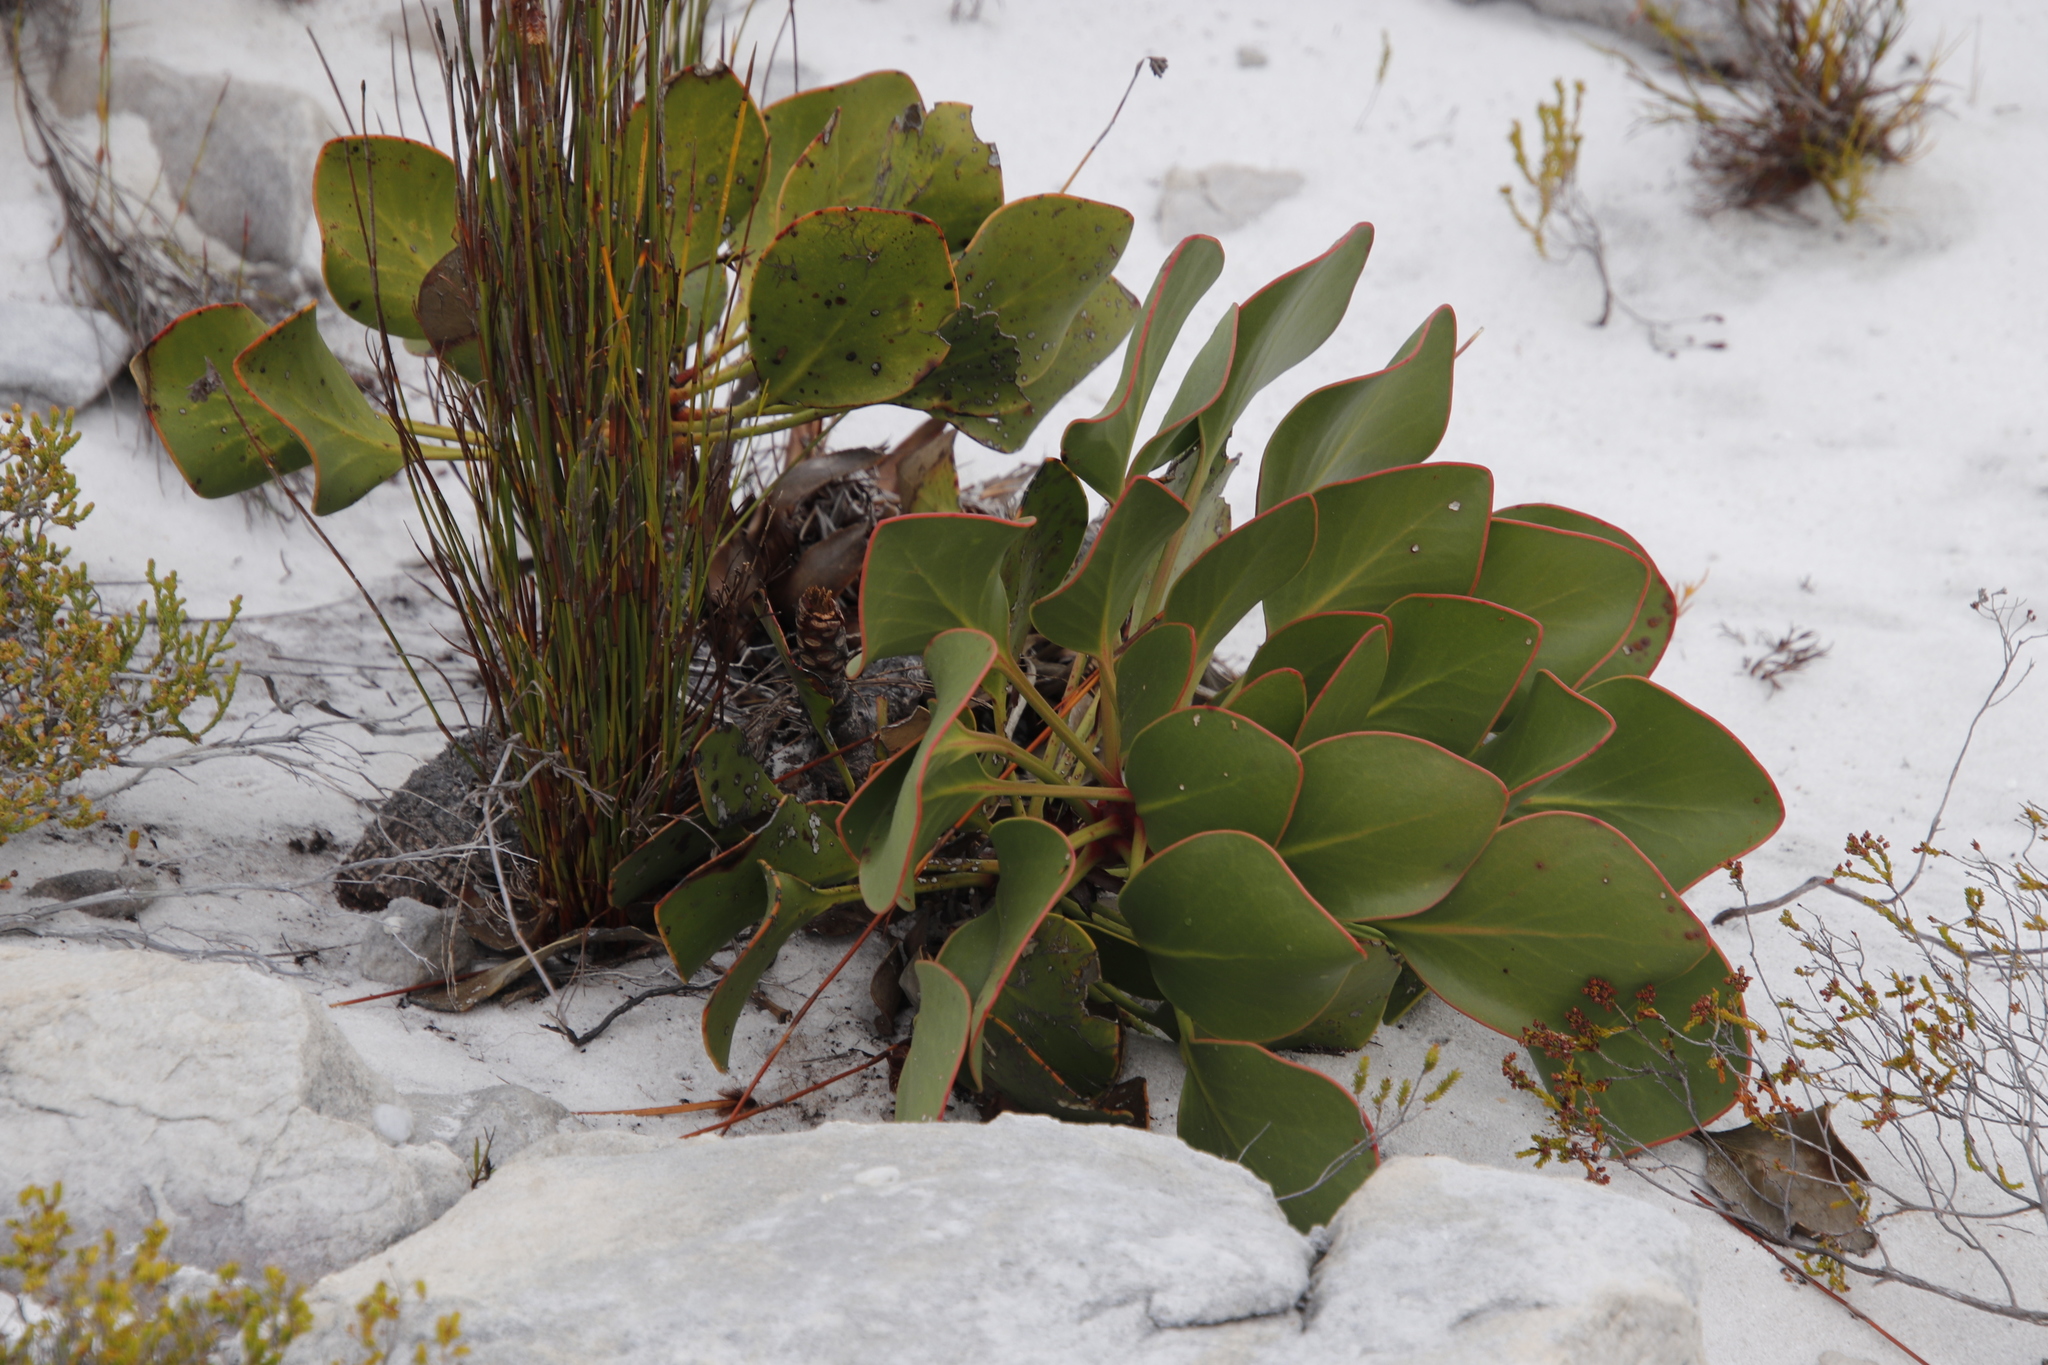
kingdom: Plantae
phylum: Tracheophyta
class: Magnoliopsida
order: Proteales
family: Proteaceae
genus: Protea
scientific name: Protea cynaroides
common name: King protea
